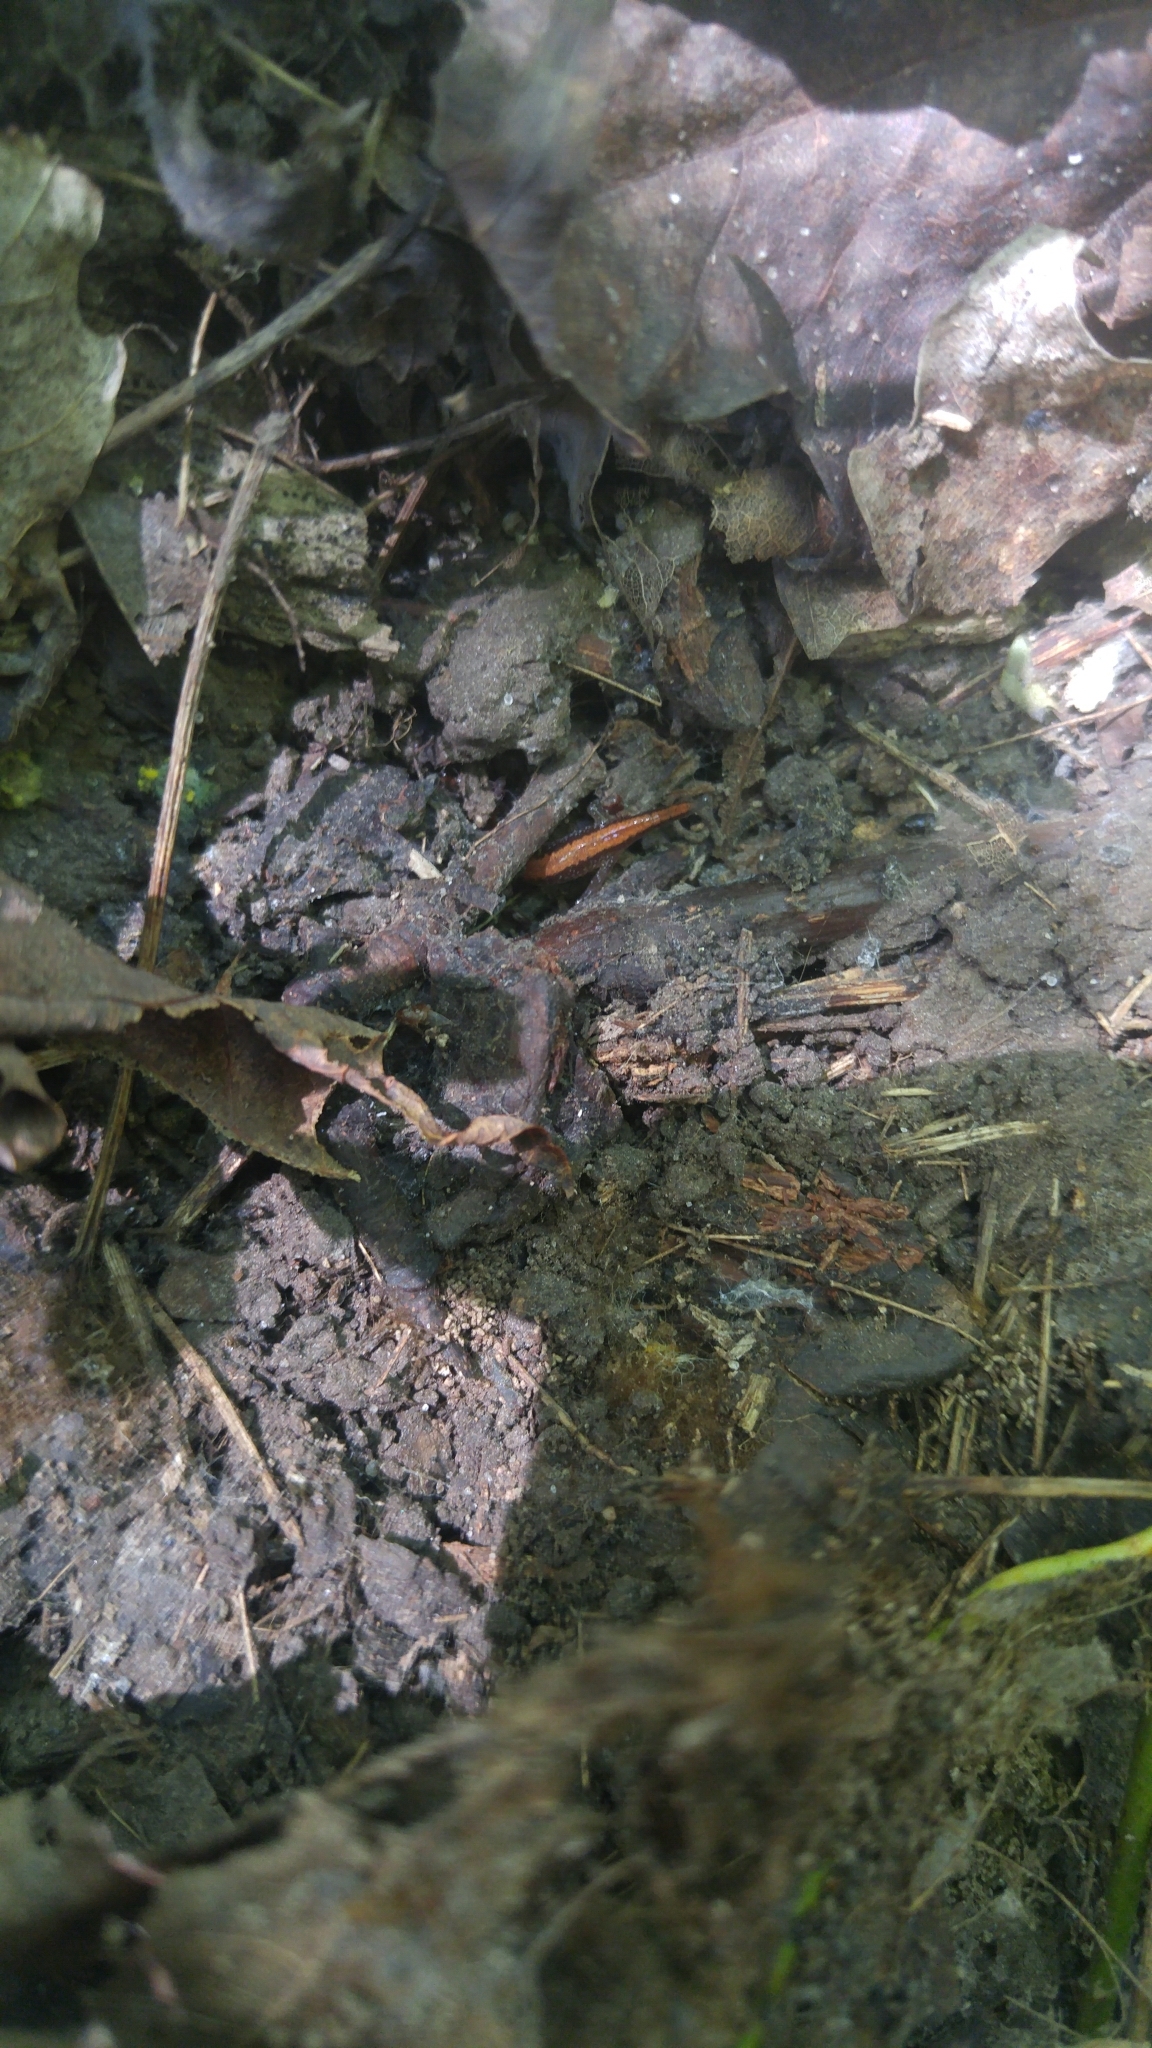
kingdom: Animalia
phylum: Chordata
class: Amphibia
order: Caudata
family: Plethodontidae
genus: Plethodon
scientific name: Plethodon cinereus
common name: Redback salamander
